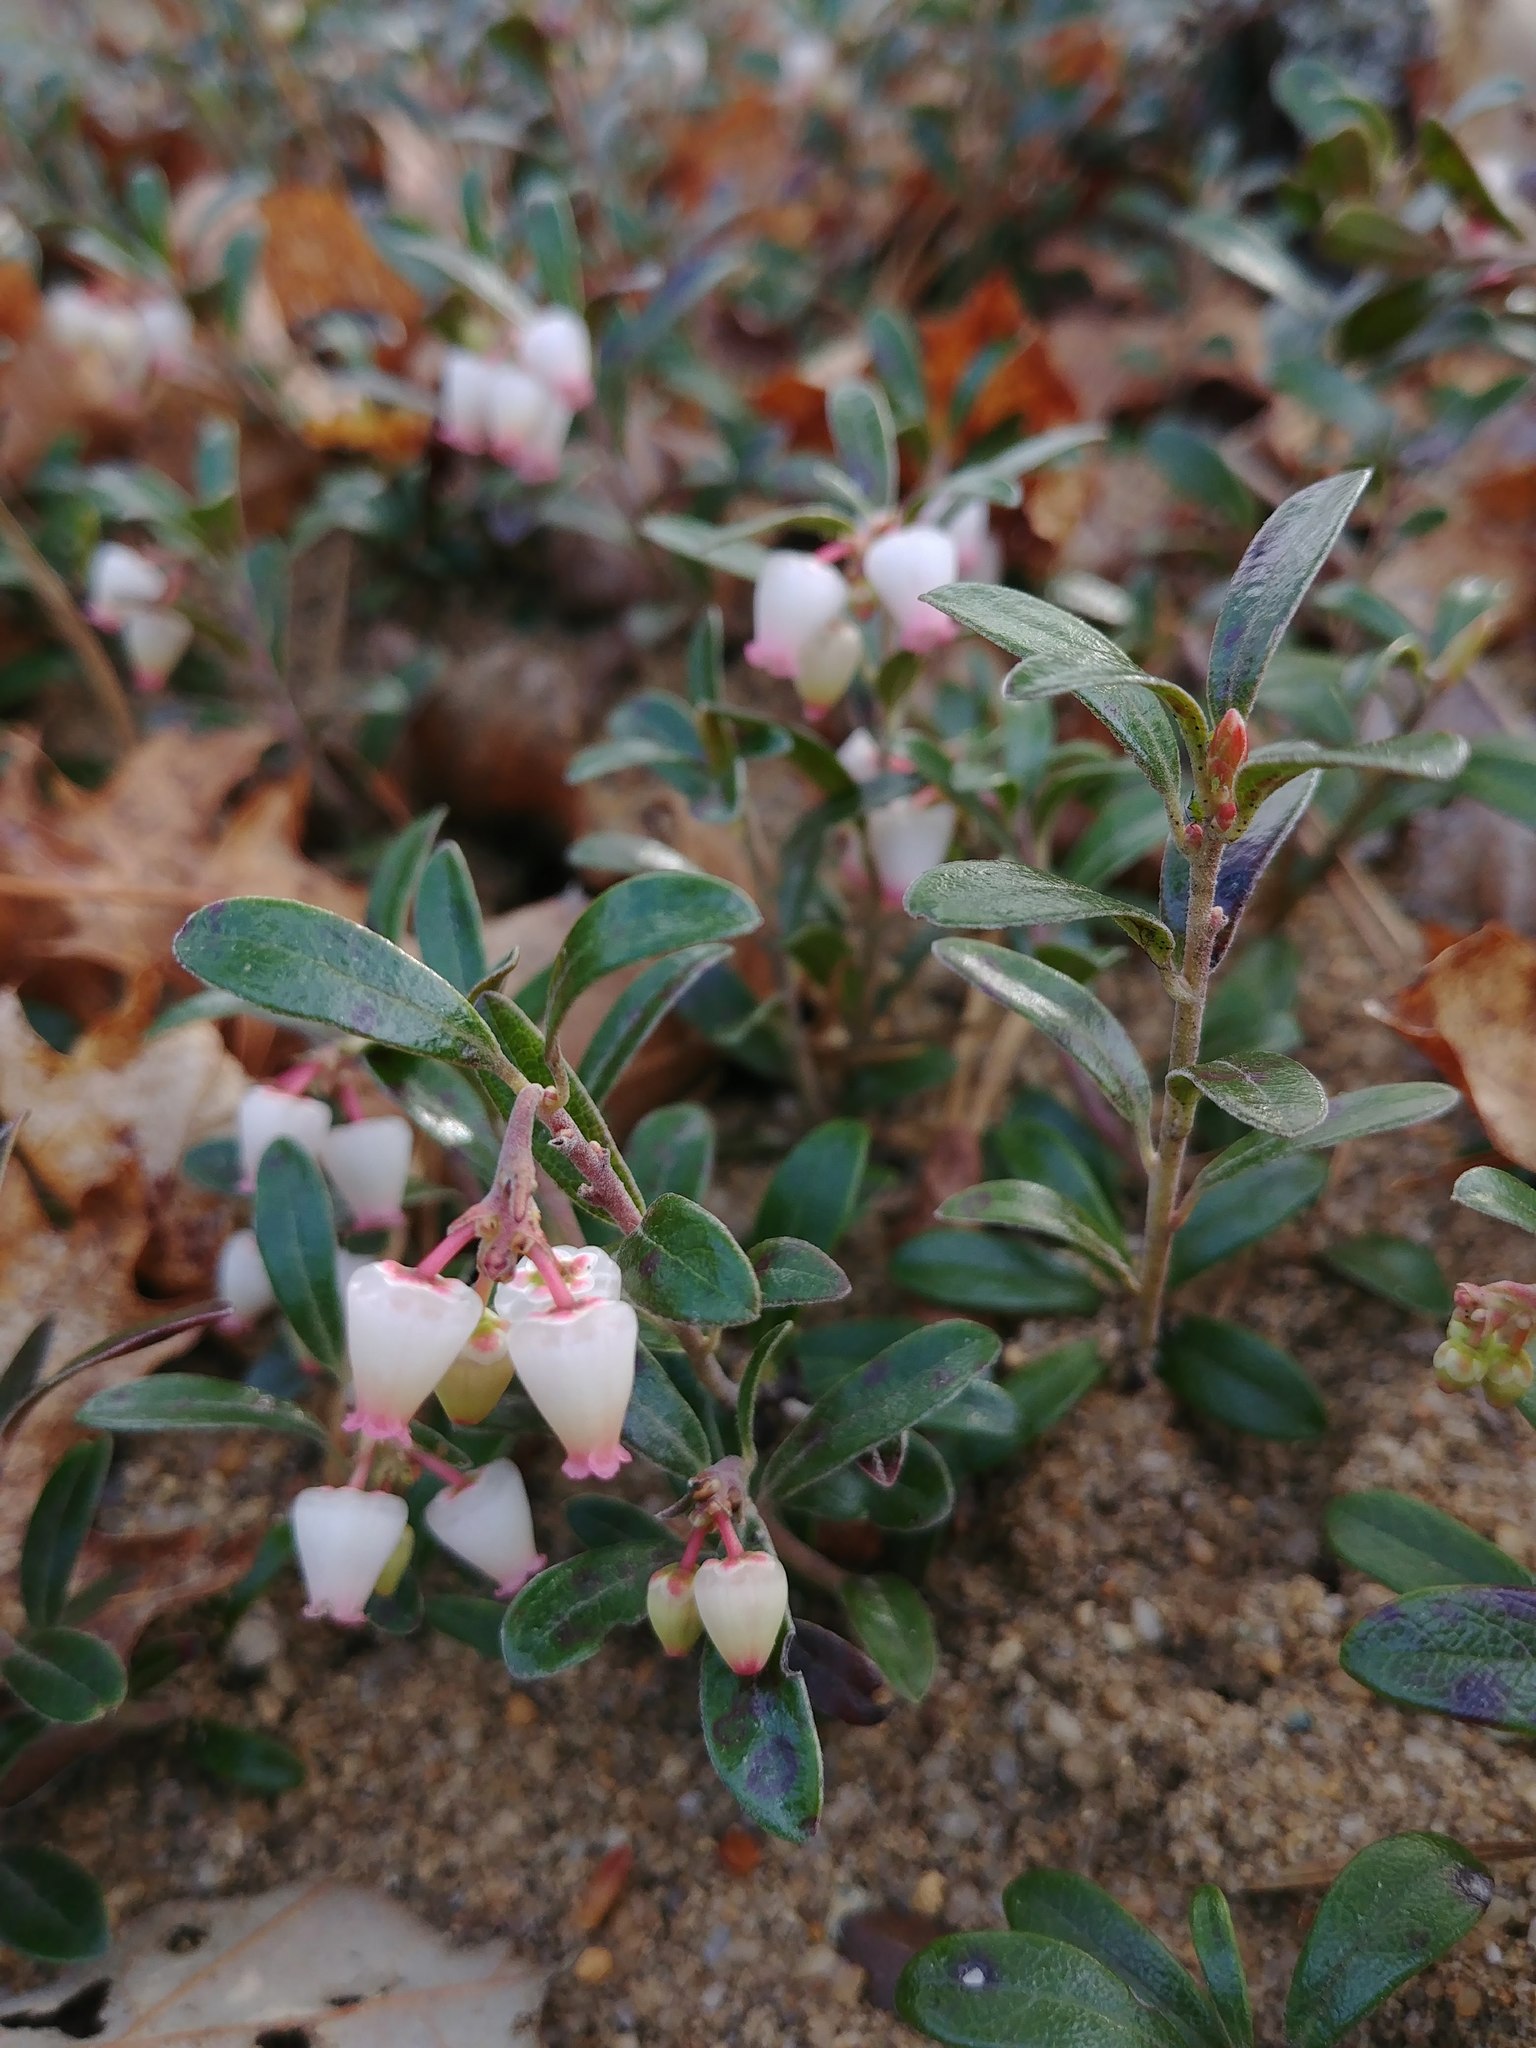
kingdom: Plantae
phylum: Tracheophyta
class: Magnoliopsida
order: Ericales
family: Ericaceae
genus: Arctostaphylos
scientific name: Arctostaphylos uva-ursi
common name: Bearberry
